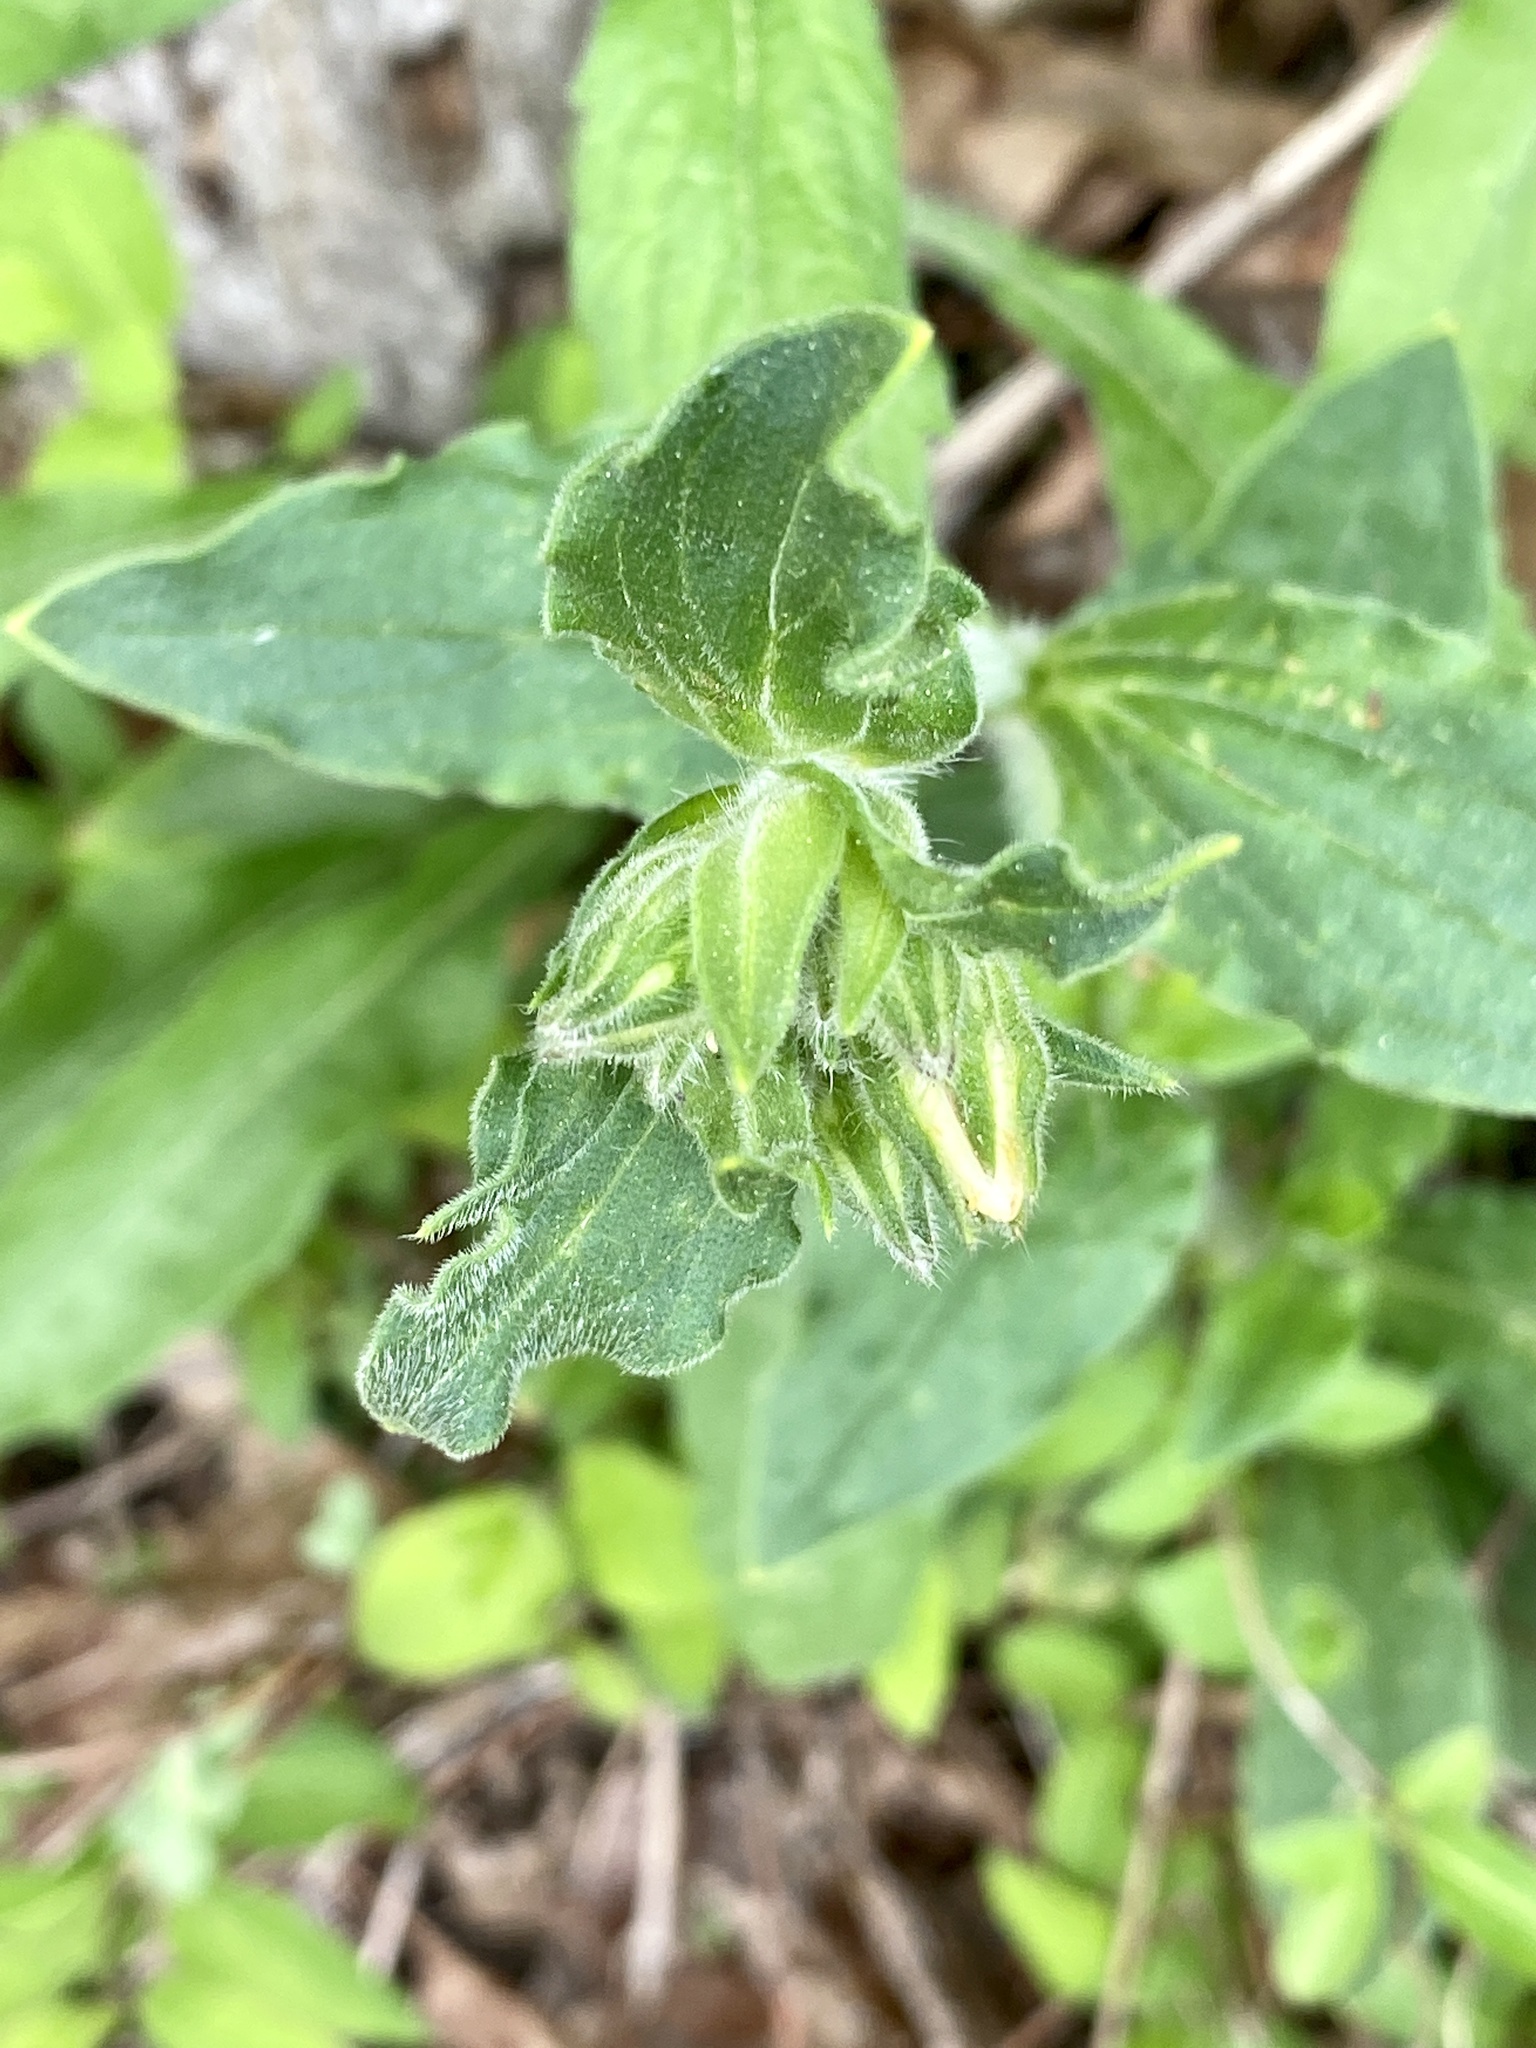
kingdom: Plantae
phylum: Tracheophyta
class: Magnoliopsida
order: Caryophyllales
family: Caryophyllaceae
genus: Silene
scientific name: Silene latifolia
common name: White campion
